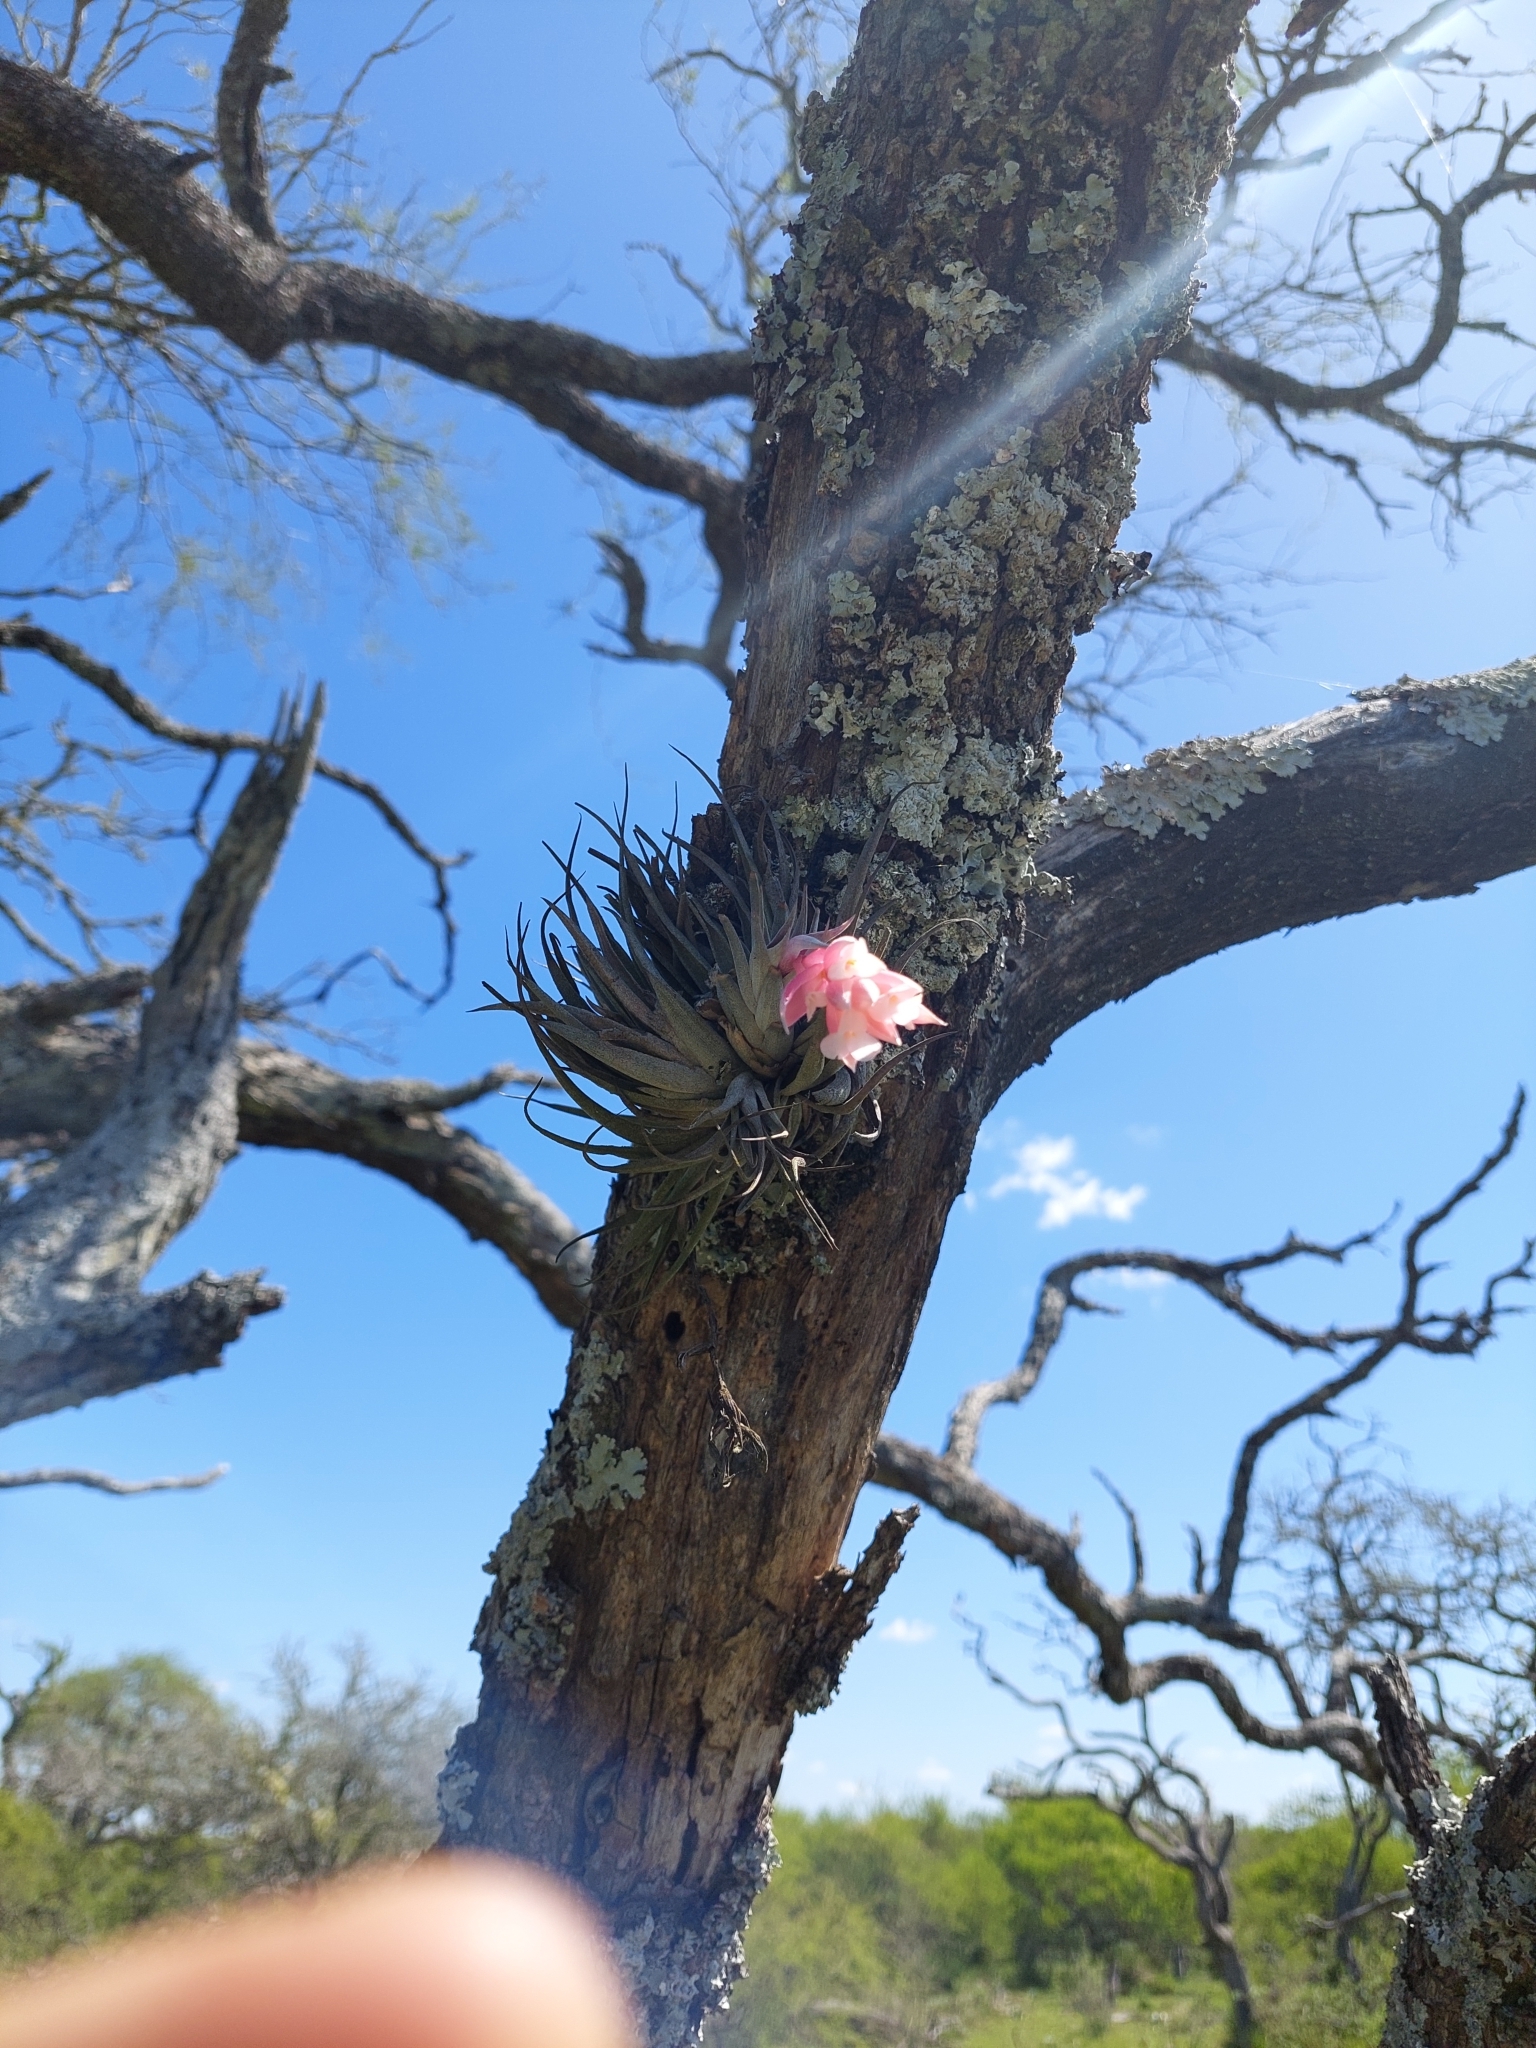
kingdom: Plantae
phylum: Tracheophyta
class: Liliopsida
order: Poales
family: Bromeliaceae
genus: Tillandsia
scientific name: Tillandsia recurvifolia
